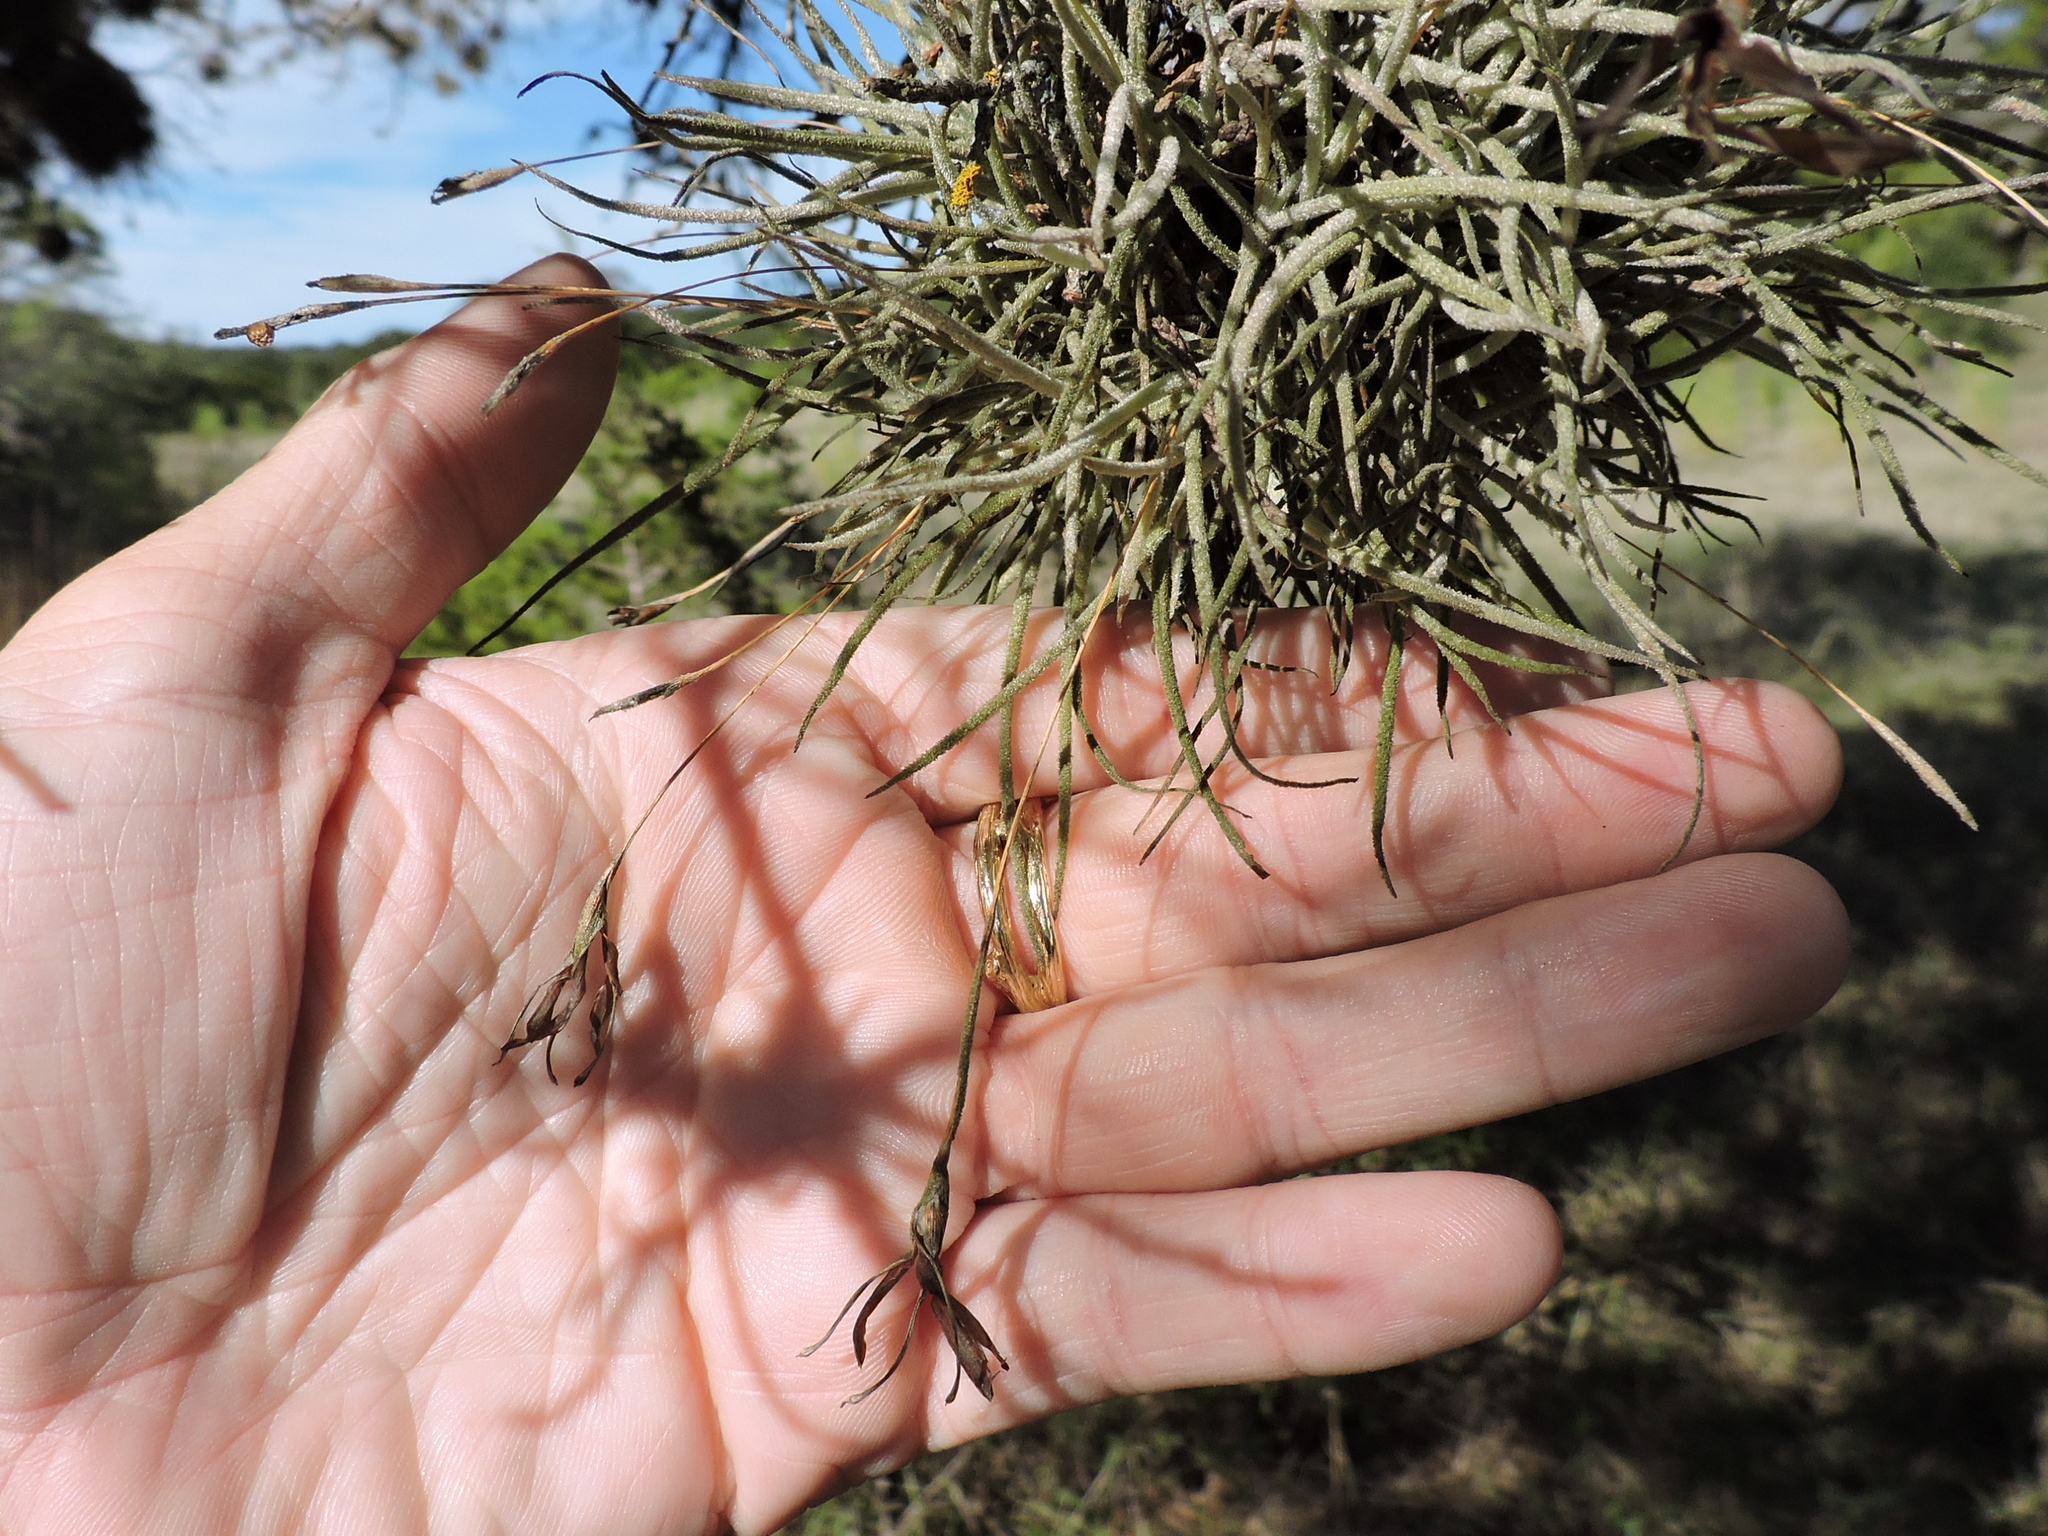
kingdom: Plantae
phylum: Tracheophyta
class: Liliopsida
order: Poales
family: Bromeliaceae
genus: Tillandsia
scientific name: Tillandsia recurvata
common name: Small ballmoss
